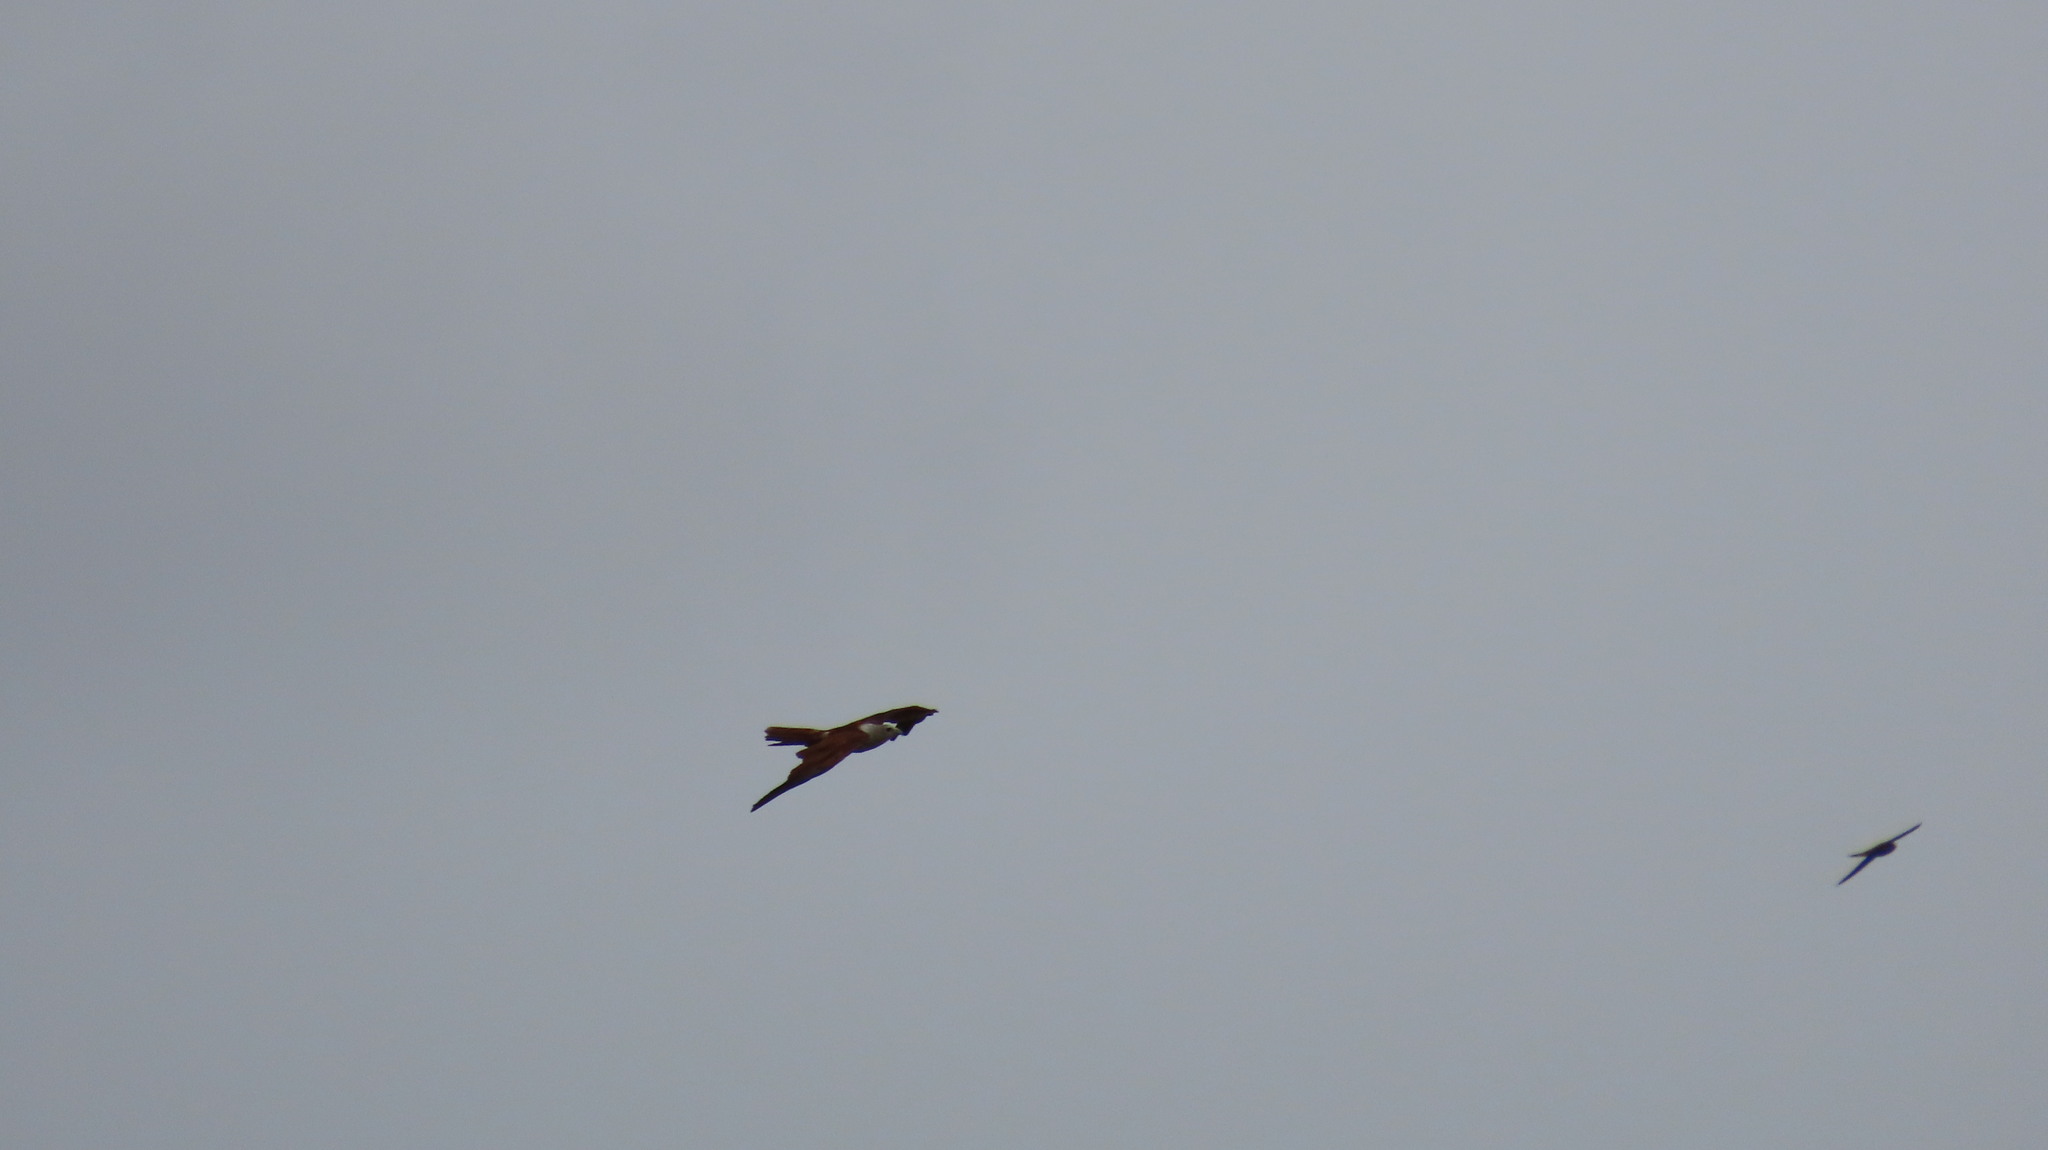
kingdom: Animalia
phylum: Chordata
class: Aves
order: Accipitriformes
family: Accipitridae
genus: Haliastur
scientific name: Haliastur indus
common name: Brahminy kite
